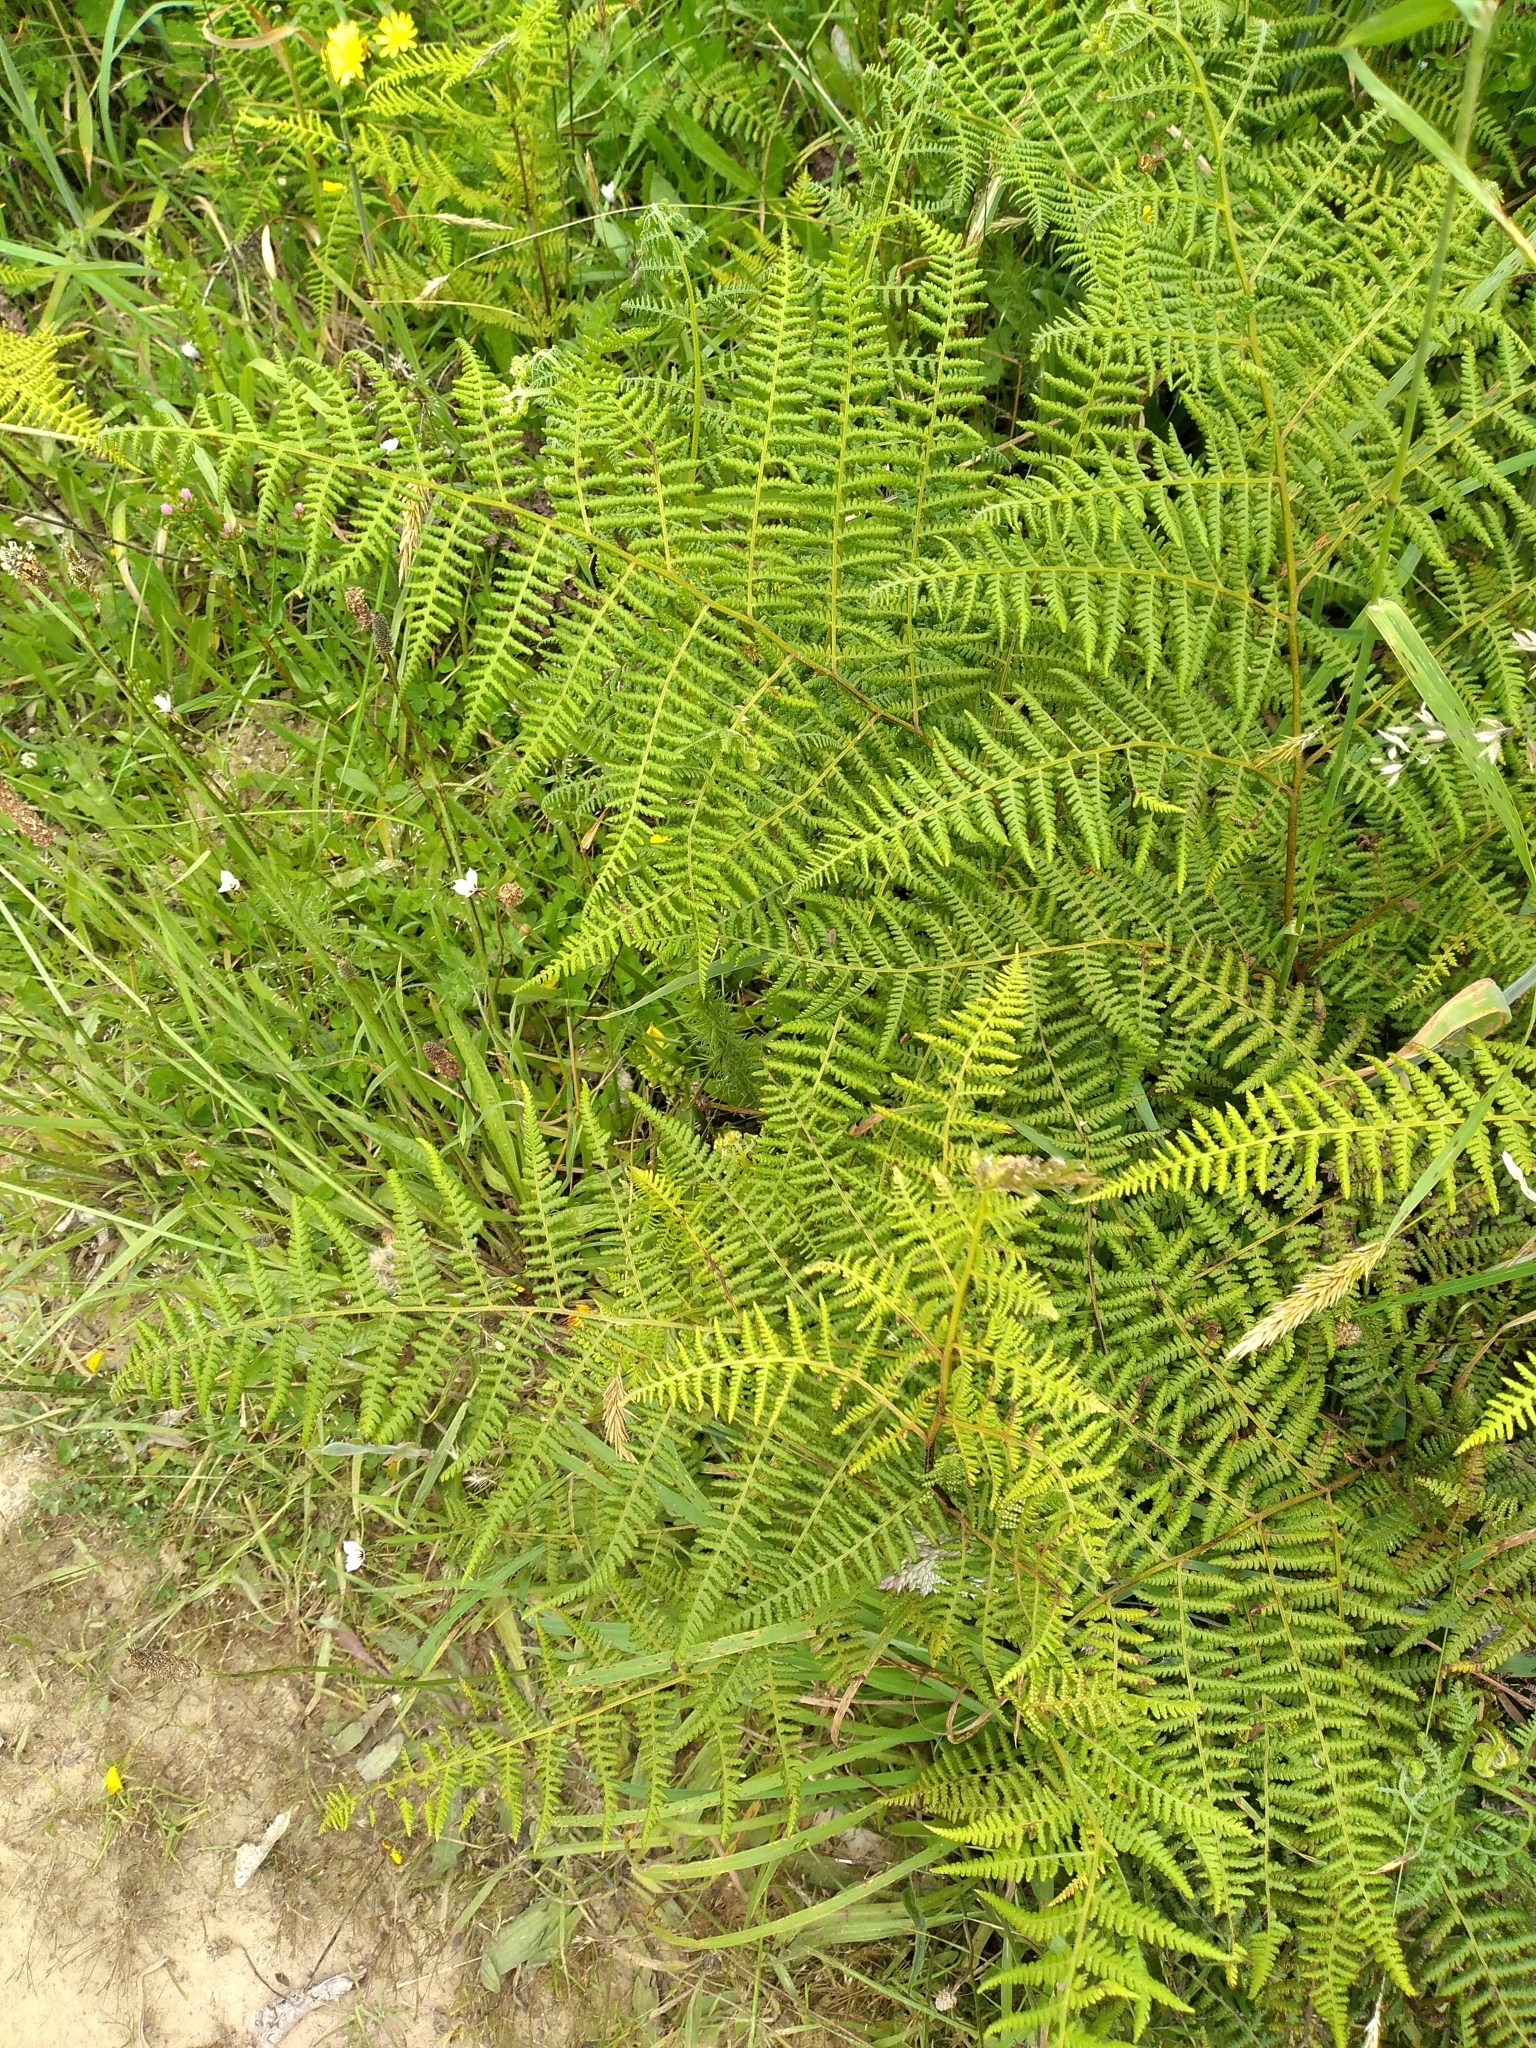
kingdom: Plantae
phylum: Tracheophyta
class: Polypodiopsida
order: Polypodiales
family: Dennstaedtiaceae
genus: Hypolepis
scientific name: Hypolepis ambigua
